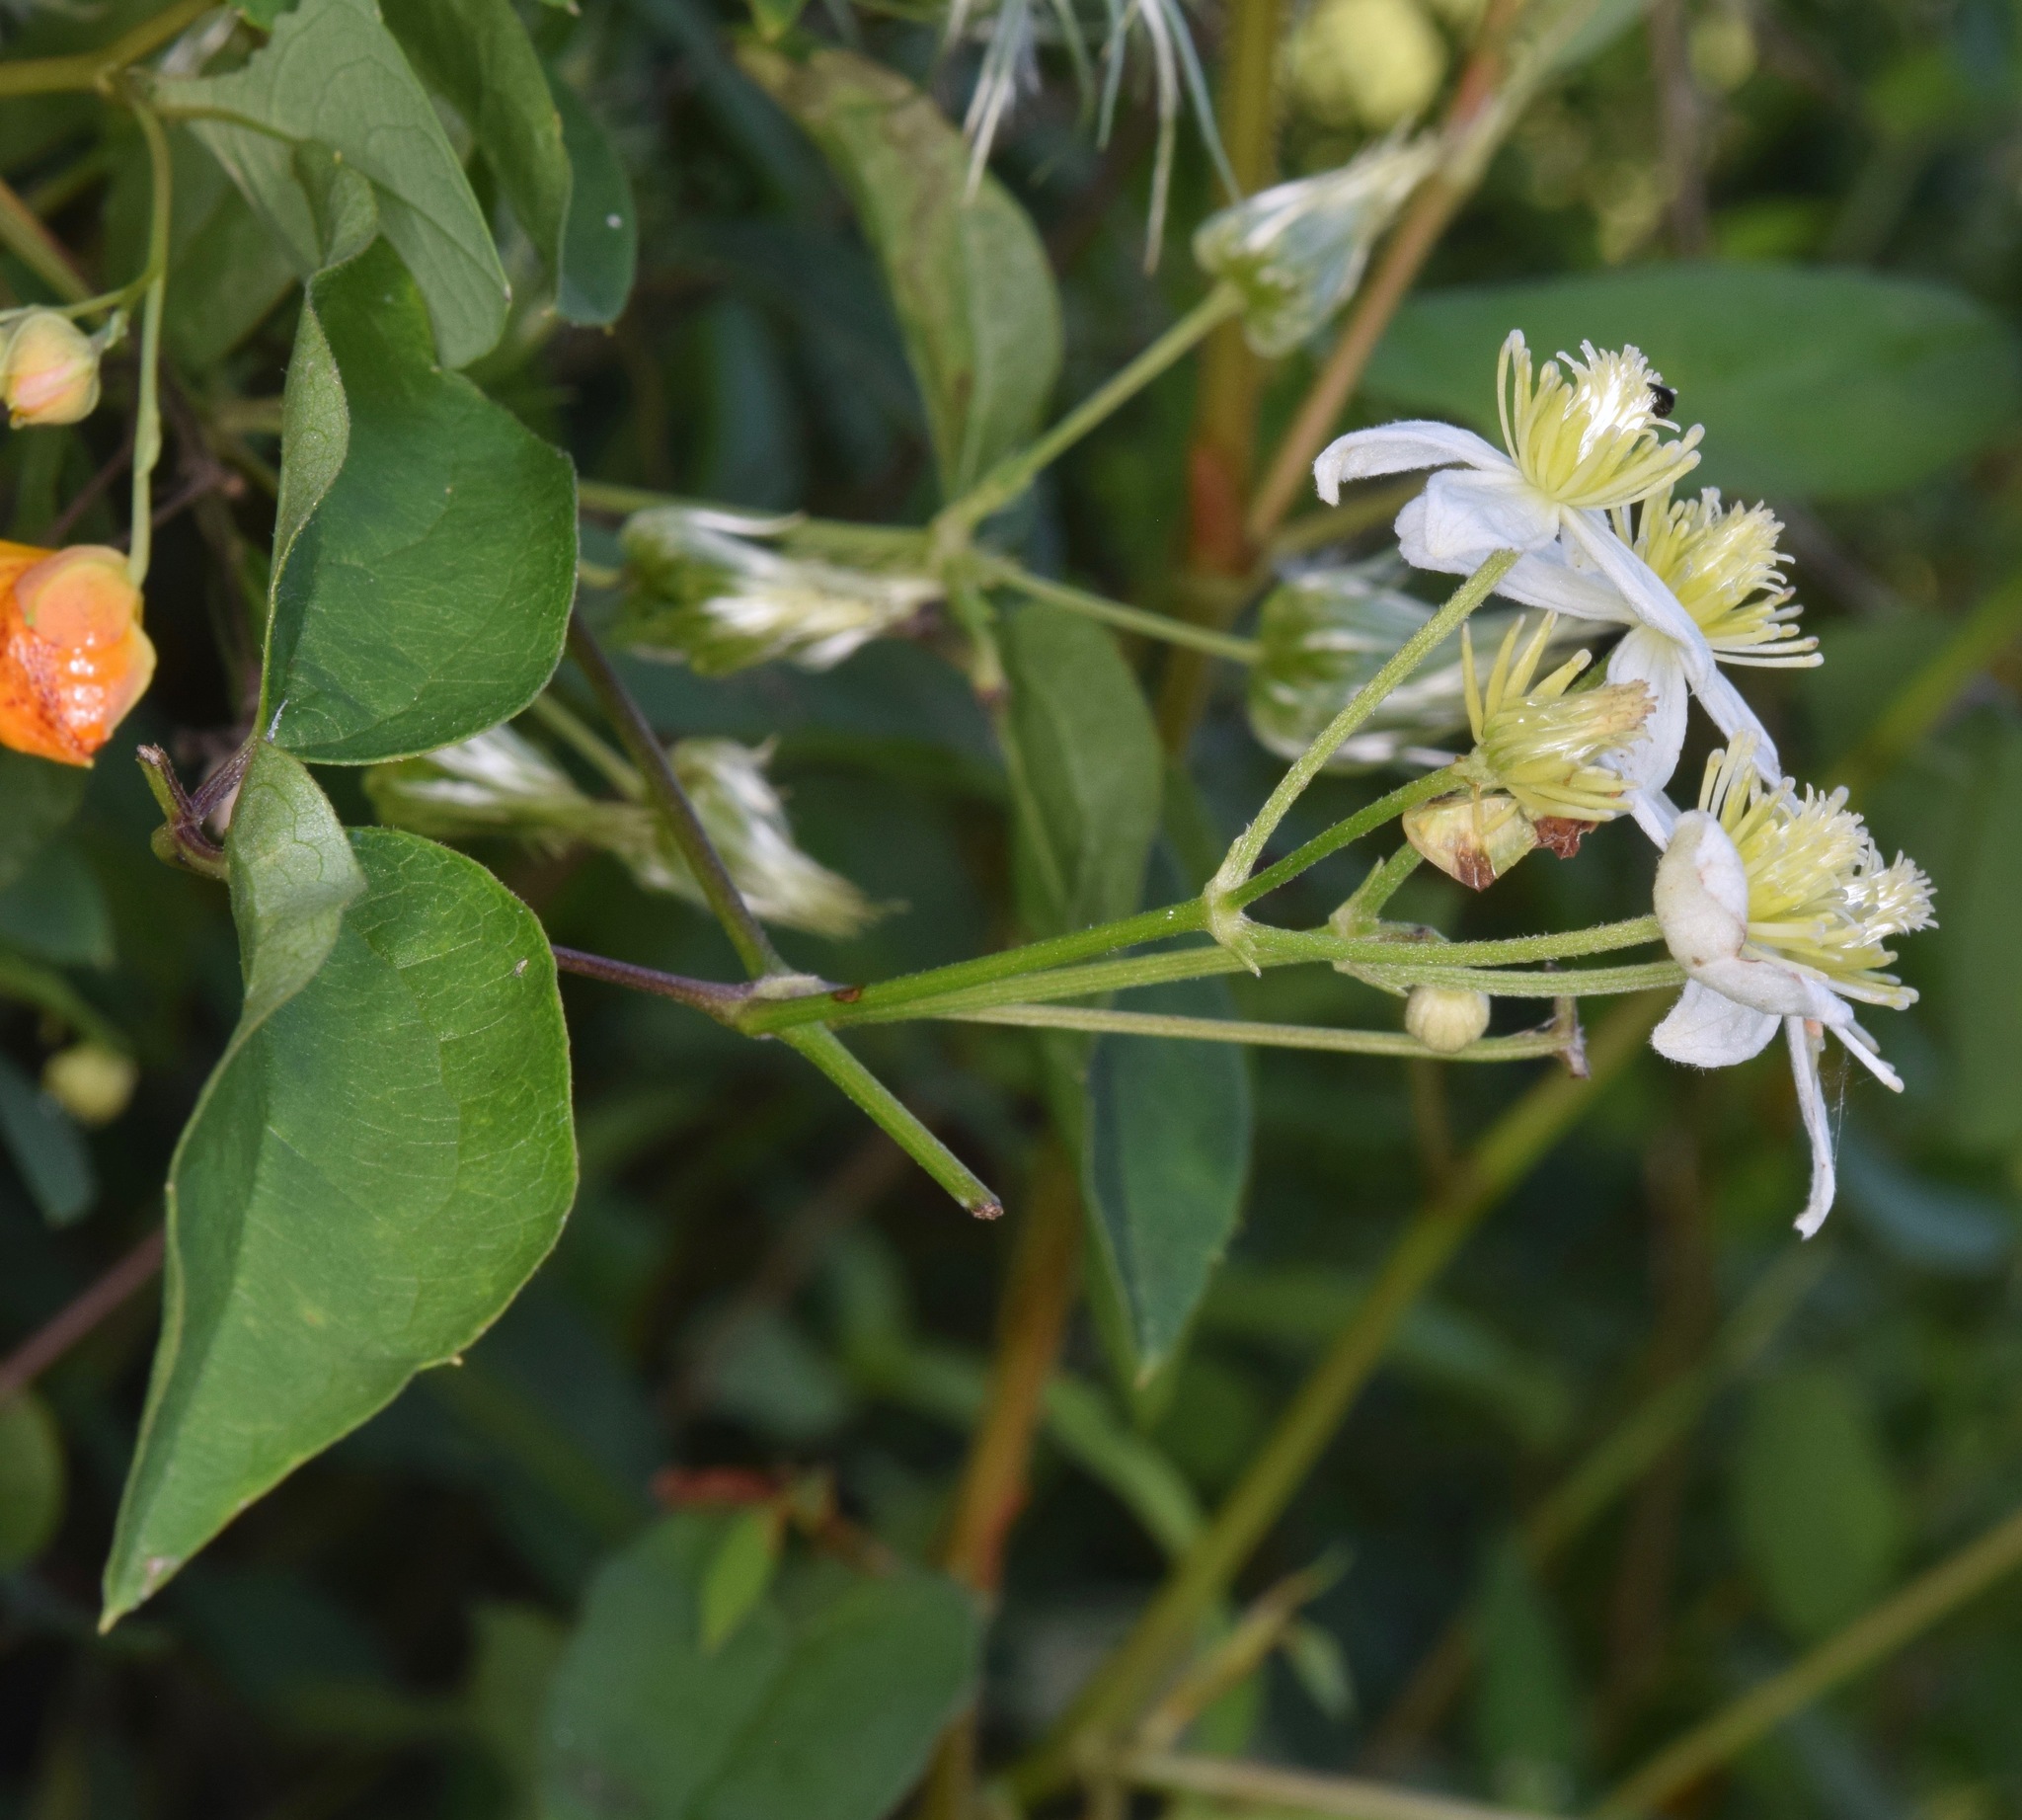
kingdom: Plantae
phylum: Tracheophyta
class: Magnoliopsida
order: Ranunculales
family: Ranunculaceae
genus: Clematis
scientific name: Clematis terniflora
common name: Sweet autumn clematis
